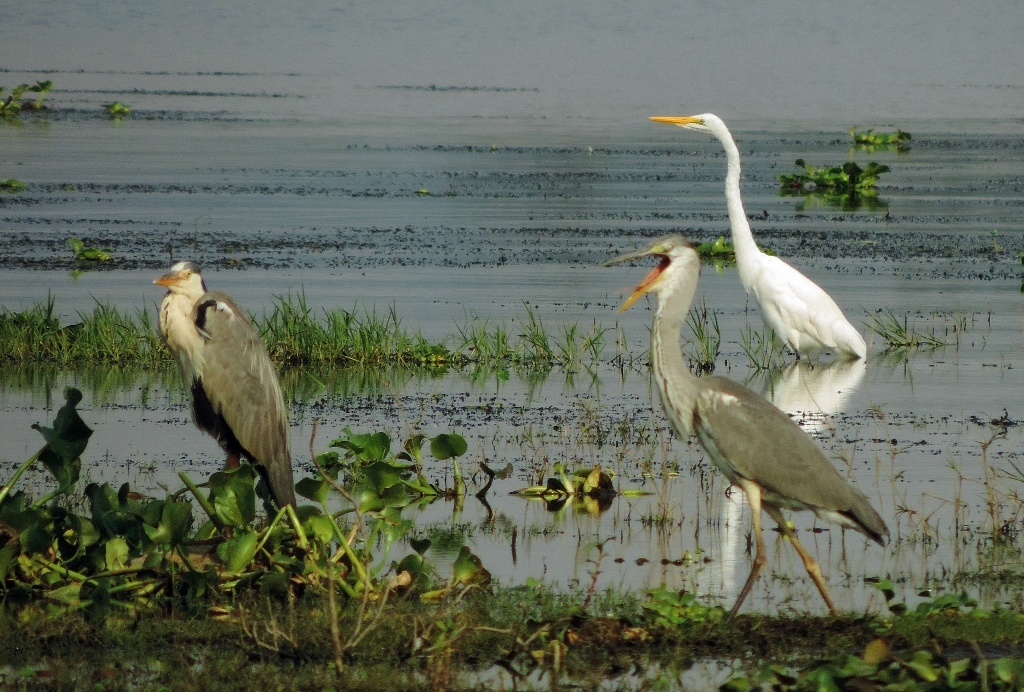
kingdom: Animalia
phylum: Chordata
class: Aves
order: Pelecaniformes
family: Ardeidae
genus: Ardea
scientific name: Ardea cinerea
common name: Grey heron
